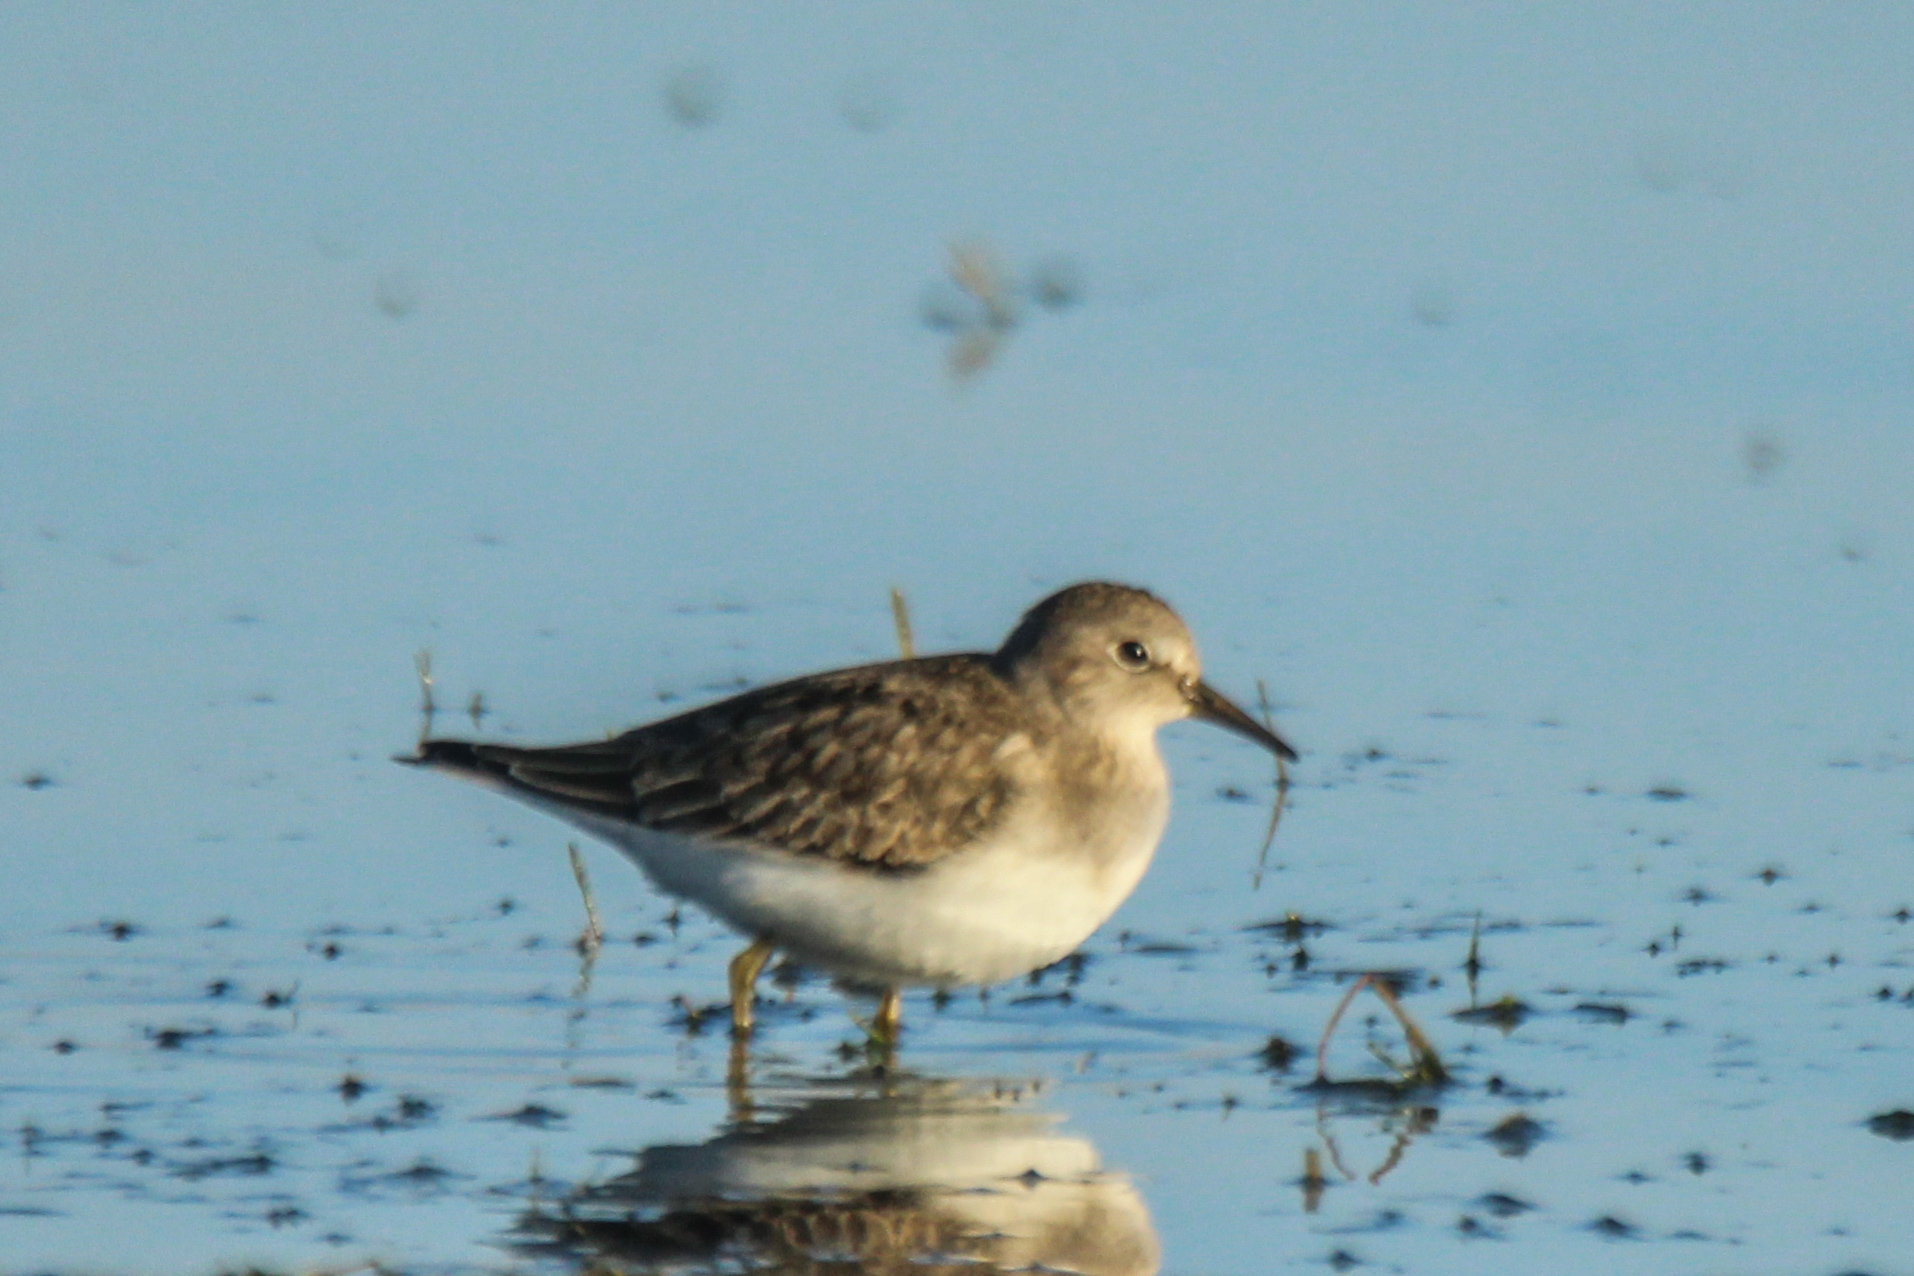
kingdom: Animalia
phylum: Chordata
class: Aves
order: Charadriiformes
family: Scolopacidae
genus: Calidris
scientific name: Calidris temminckii
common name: Temminck's stint
